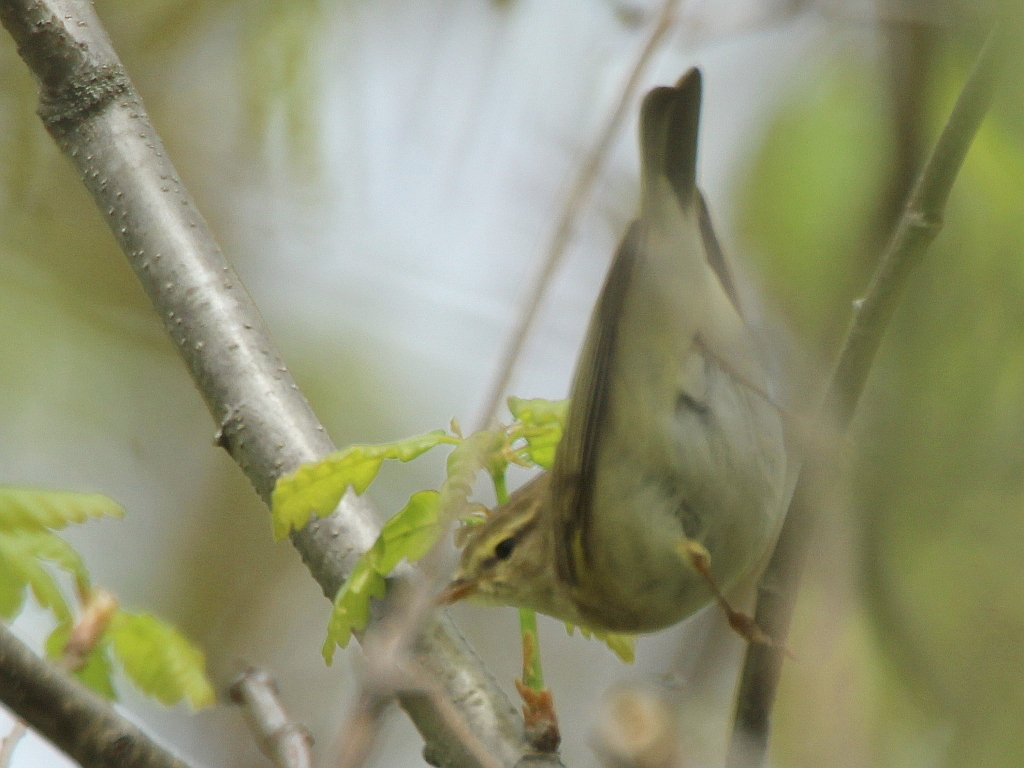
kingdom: Animalia
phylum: Chordata
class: Aves
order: Passeriformes
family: Phylloscopidae
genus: Phylloscopus
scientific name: Phylloscopus trochilus
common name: Willow warbler
